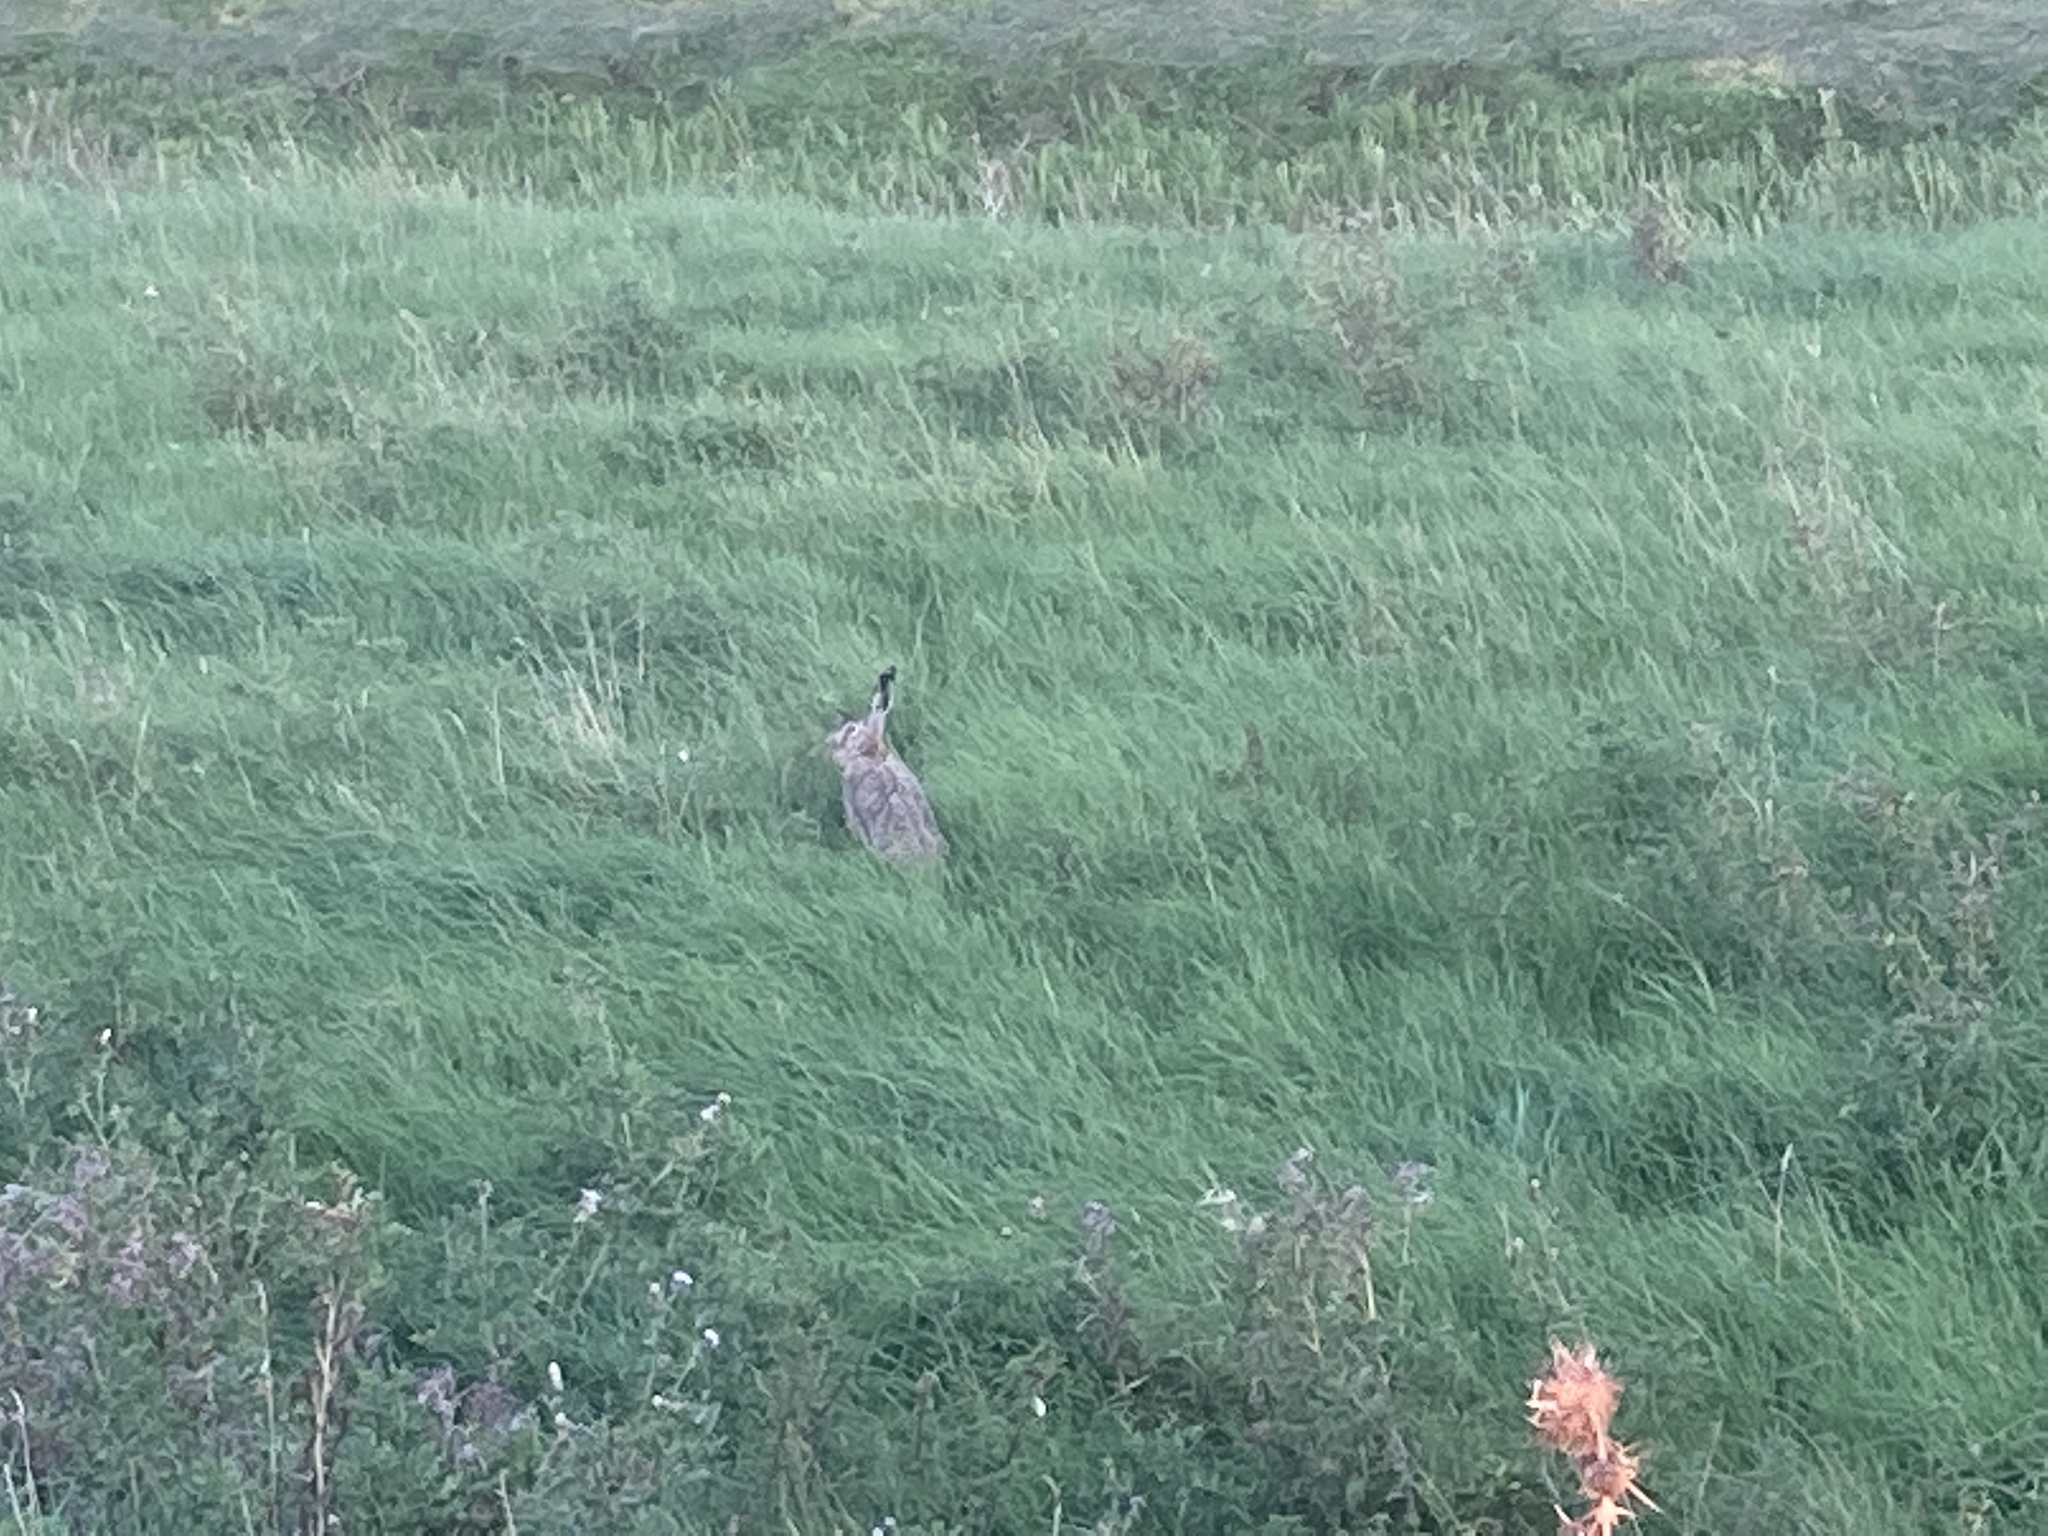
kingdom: Animalia
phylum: Chordata
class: Mammalia
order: Lagomorpha
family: Leporidae
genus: Lepus
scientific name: Lepus europaeus
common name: European hare
